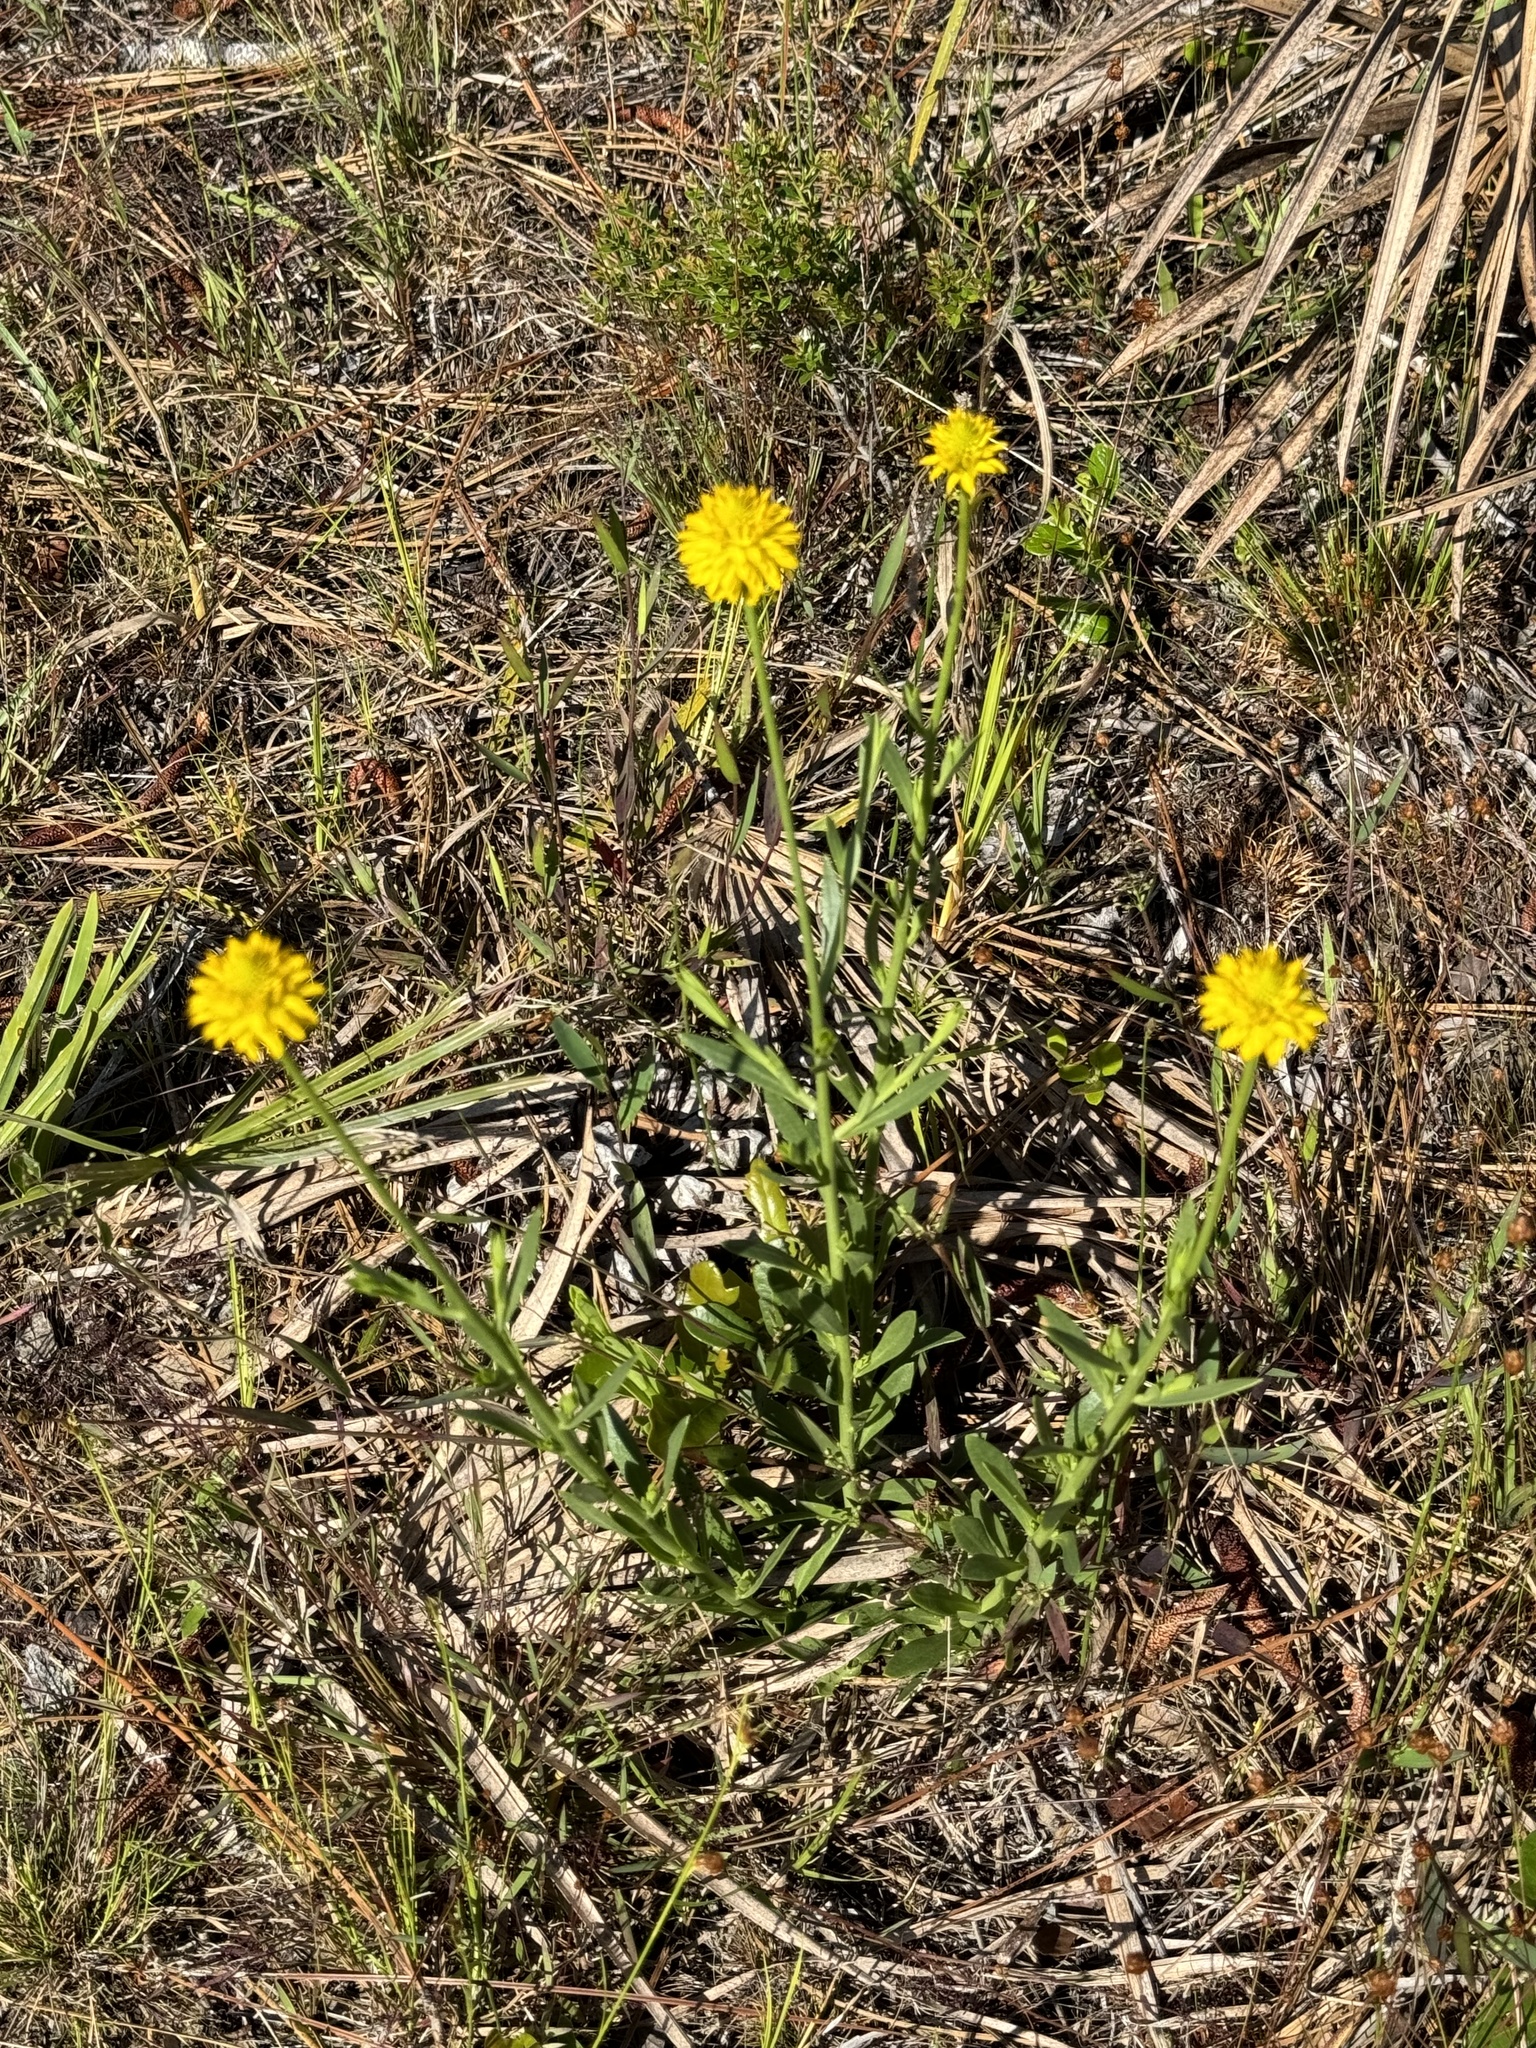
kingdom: Plantae
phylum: Tracheophyta
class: Magnoliopsida
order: Fabales
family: Polygalaceae
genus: Polygala
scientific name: Polygala rugelii
